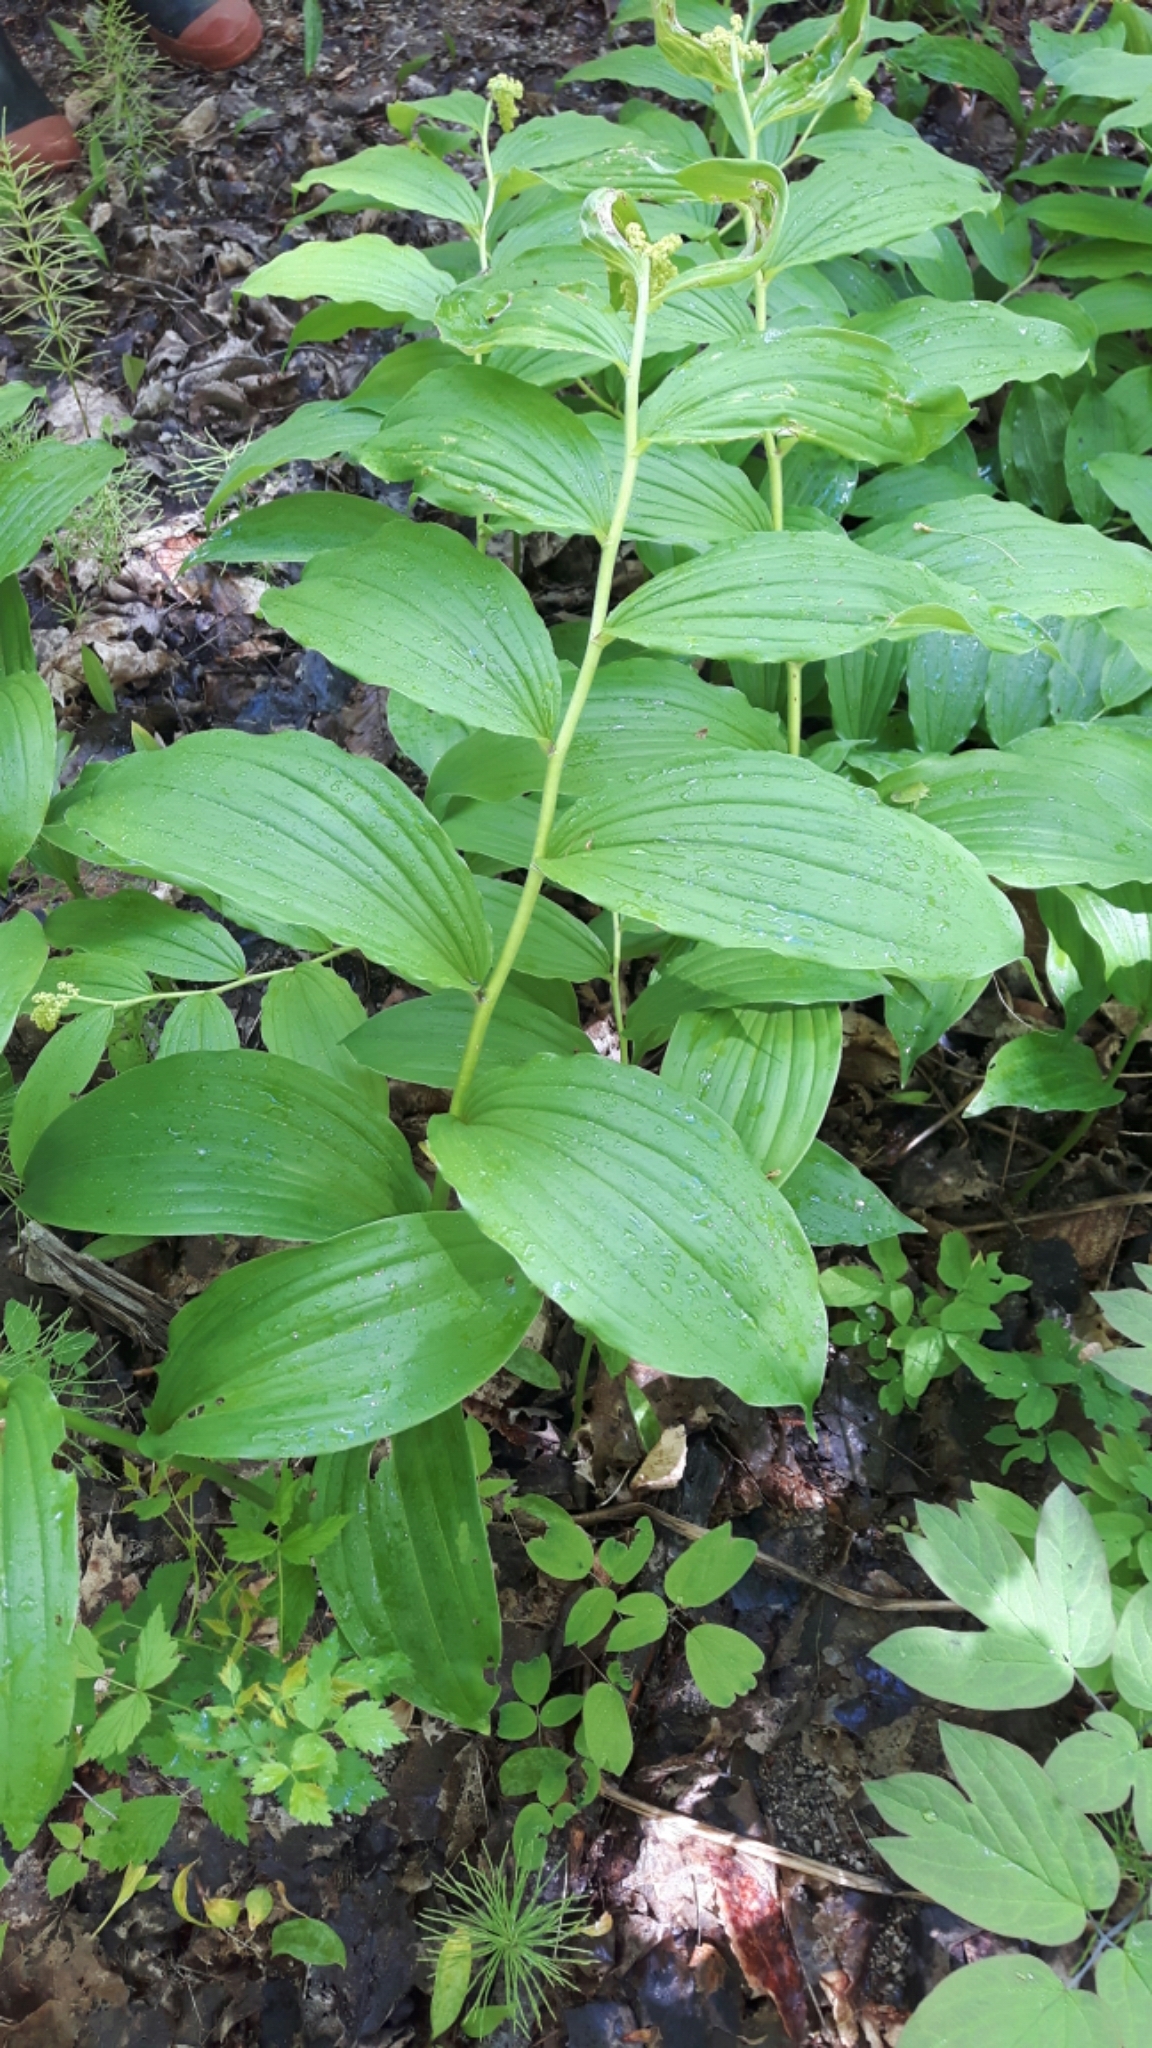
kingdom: Plantae
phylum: Tracheophyta
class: Liliopsida
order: Asparagales
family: Asparagaceae
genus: Maianthemum
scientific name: Maianthemum racemosum
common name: False spikenard
